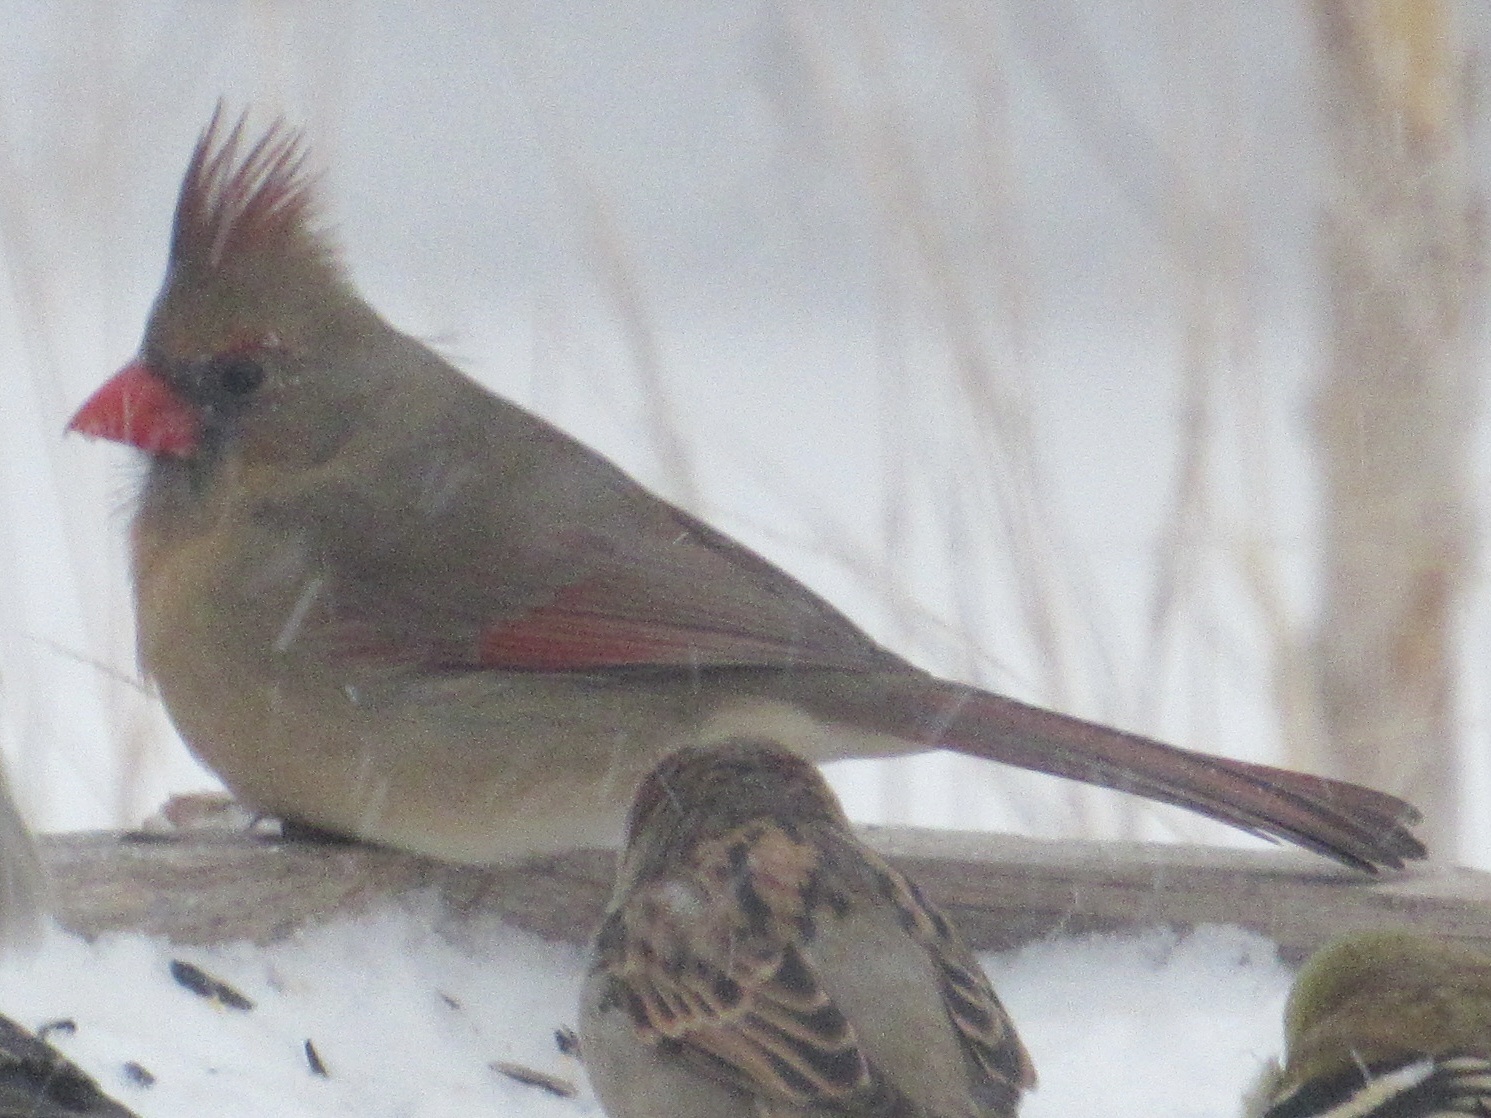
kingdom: Animalia
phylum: Chordata
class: Aves
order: Passeriformes
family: Cardinalidae
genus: Cardinalis
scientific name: Cardinalis cardinalis
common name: Northern cardinal
